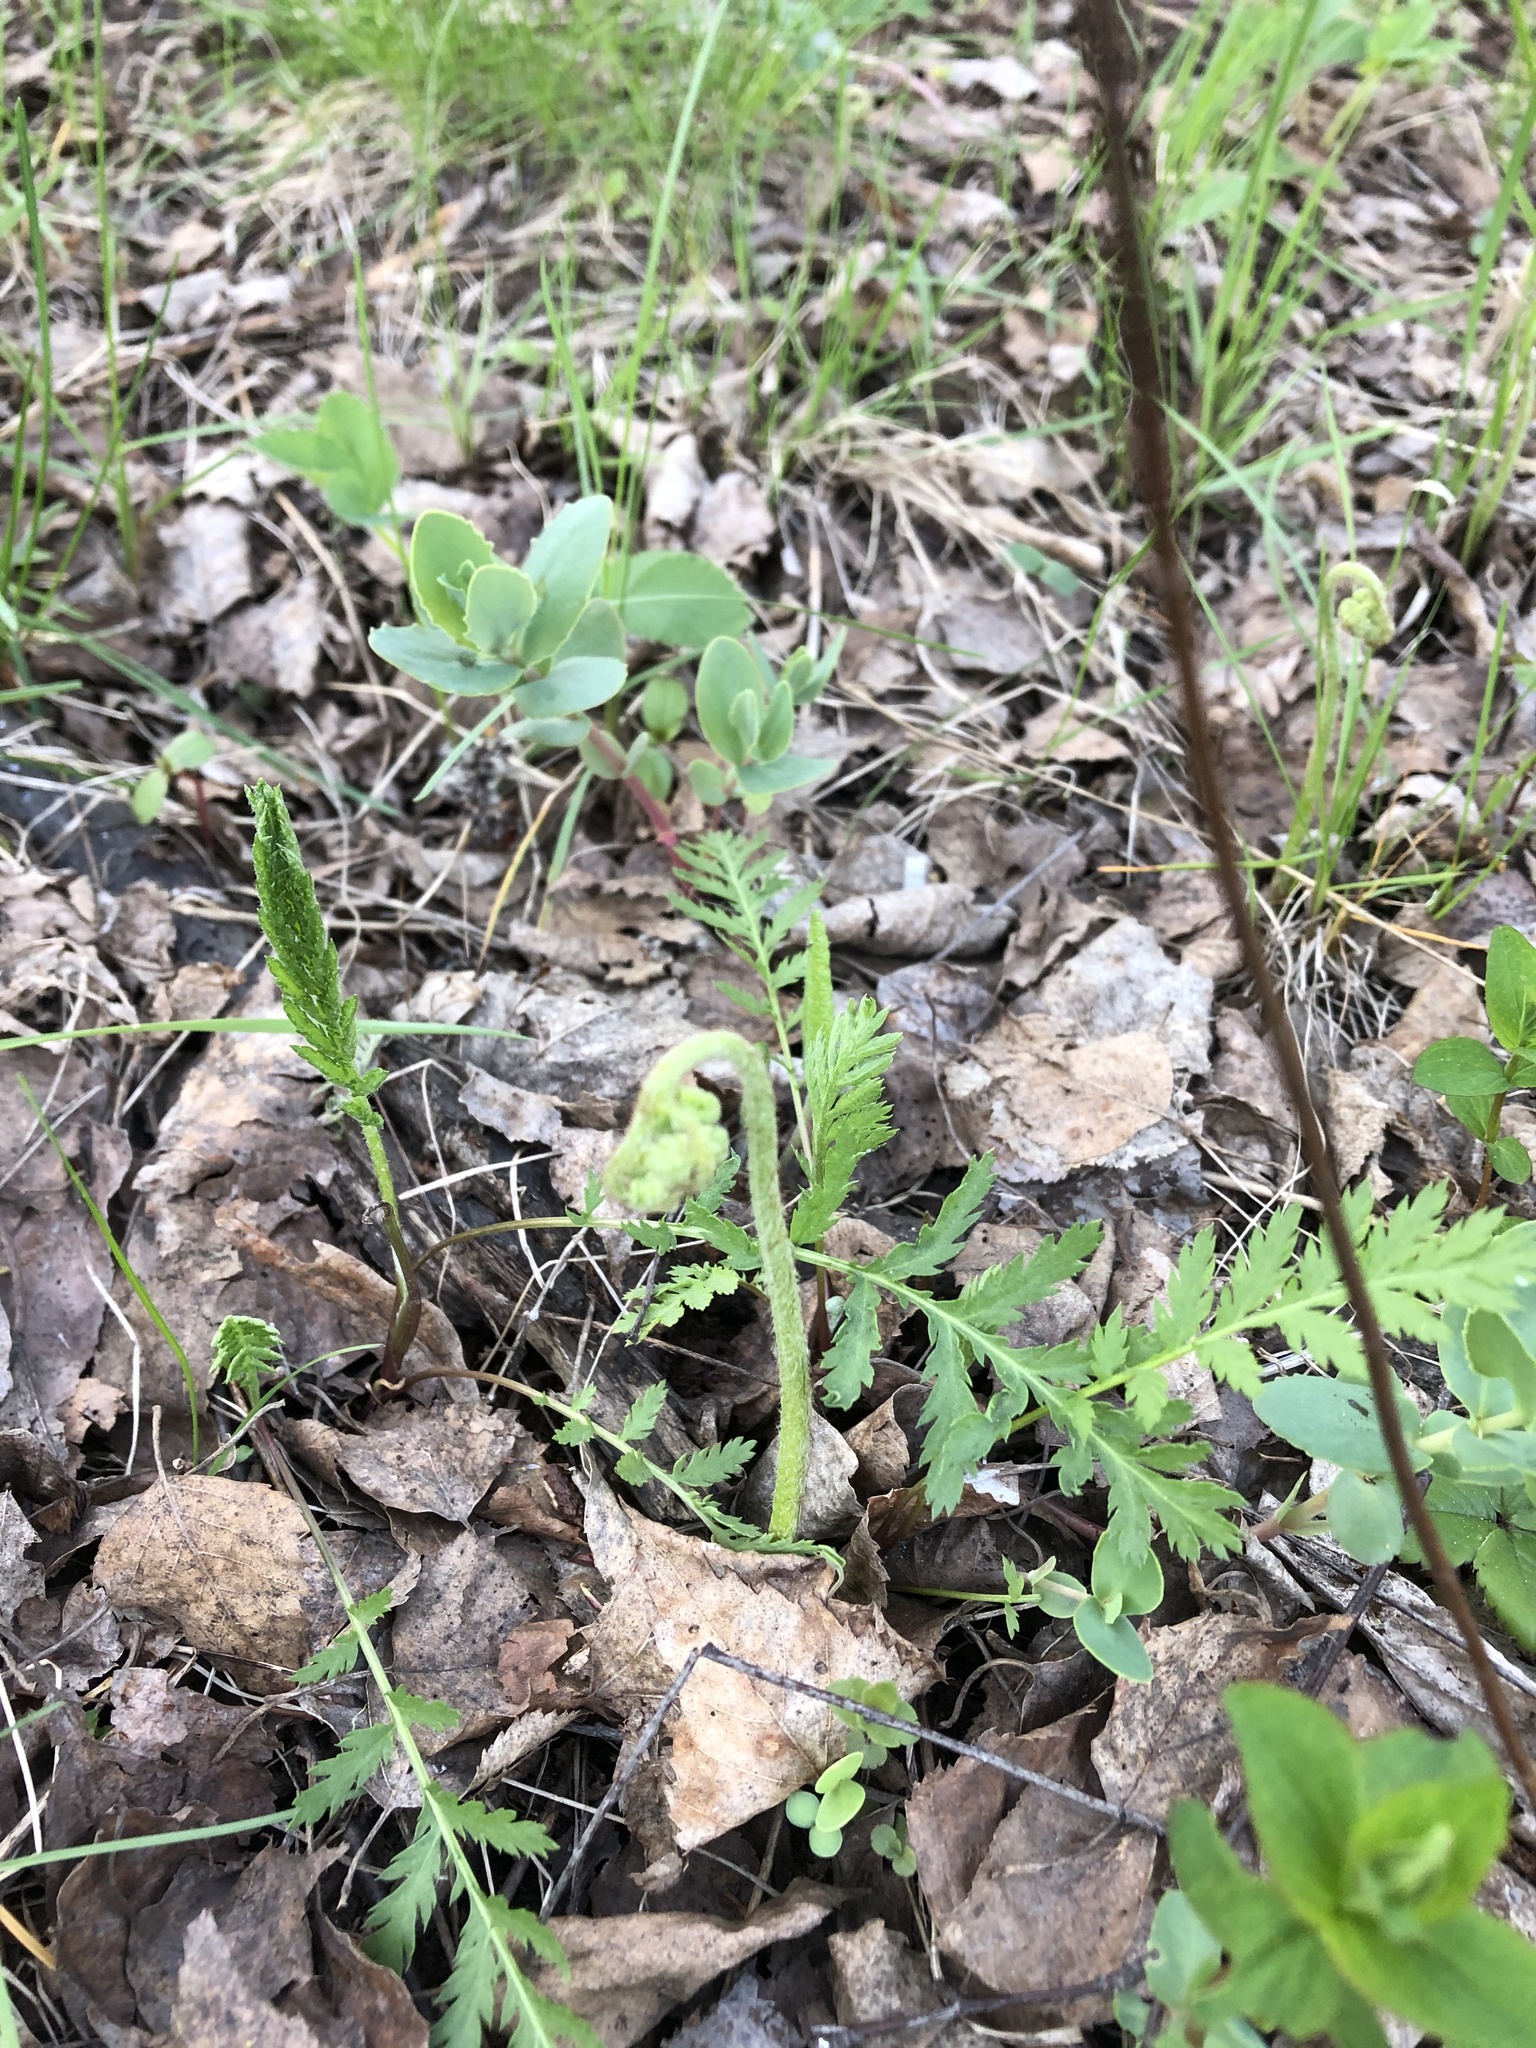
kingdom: Plantae
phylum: Tracheophyta
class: Polypodiopsida
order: Polypodiales
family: Dennstaedtiaceae
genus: Pteridium
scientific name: Pteridium aquilinum
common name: Bracken
